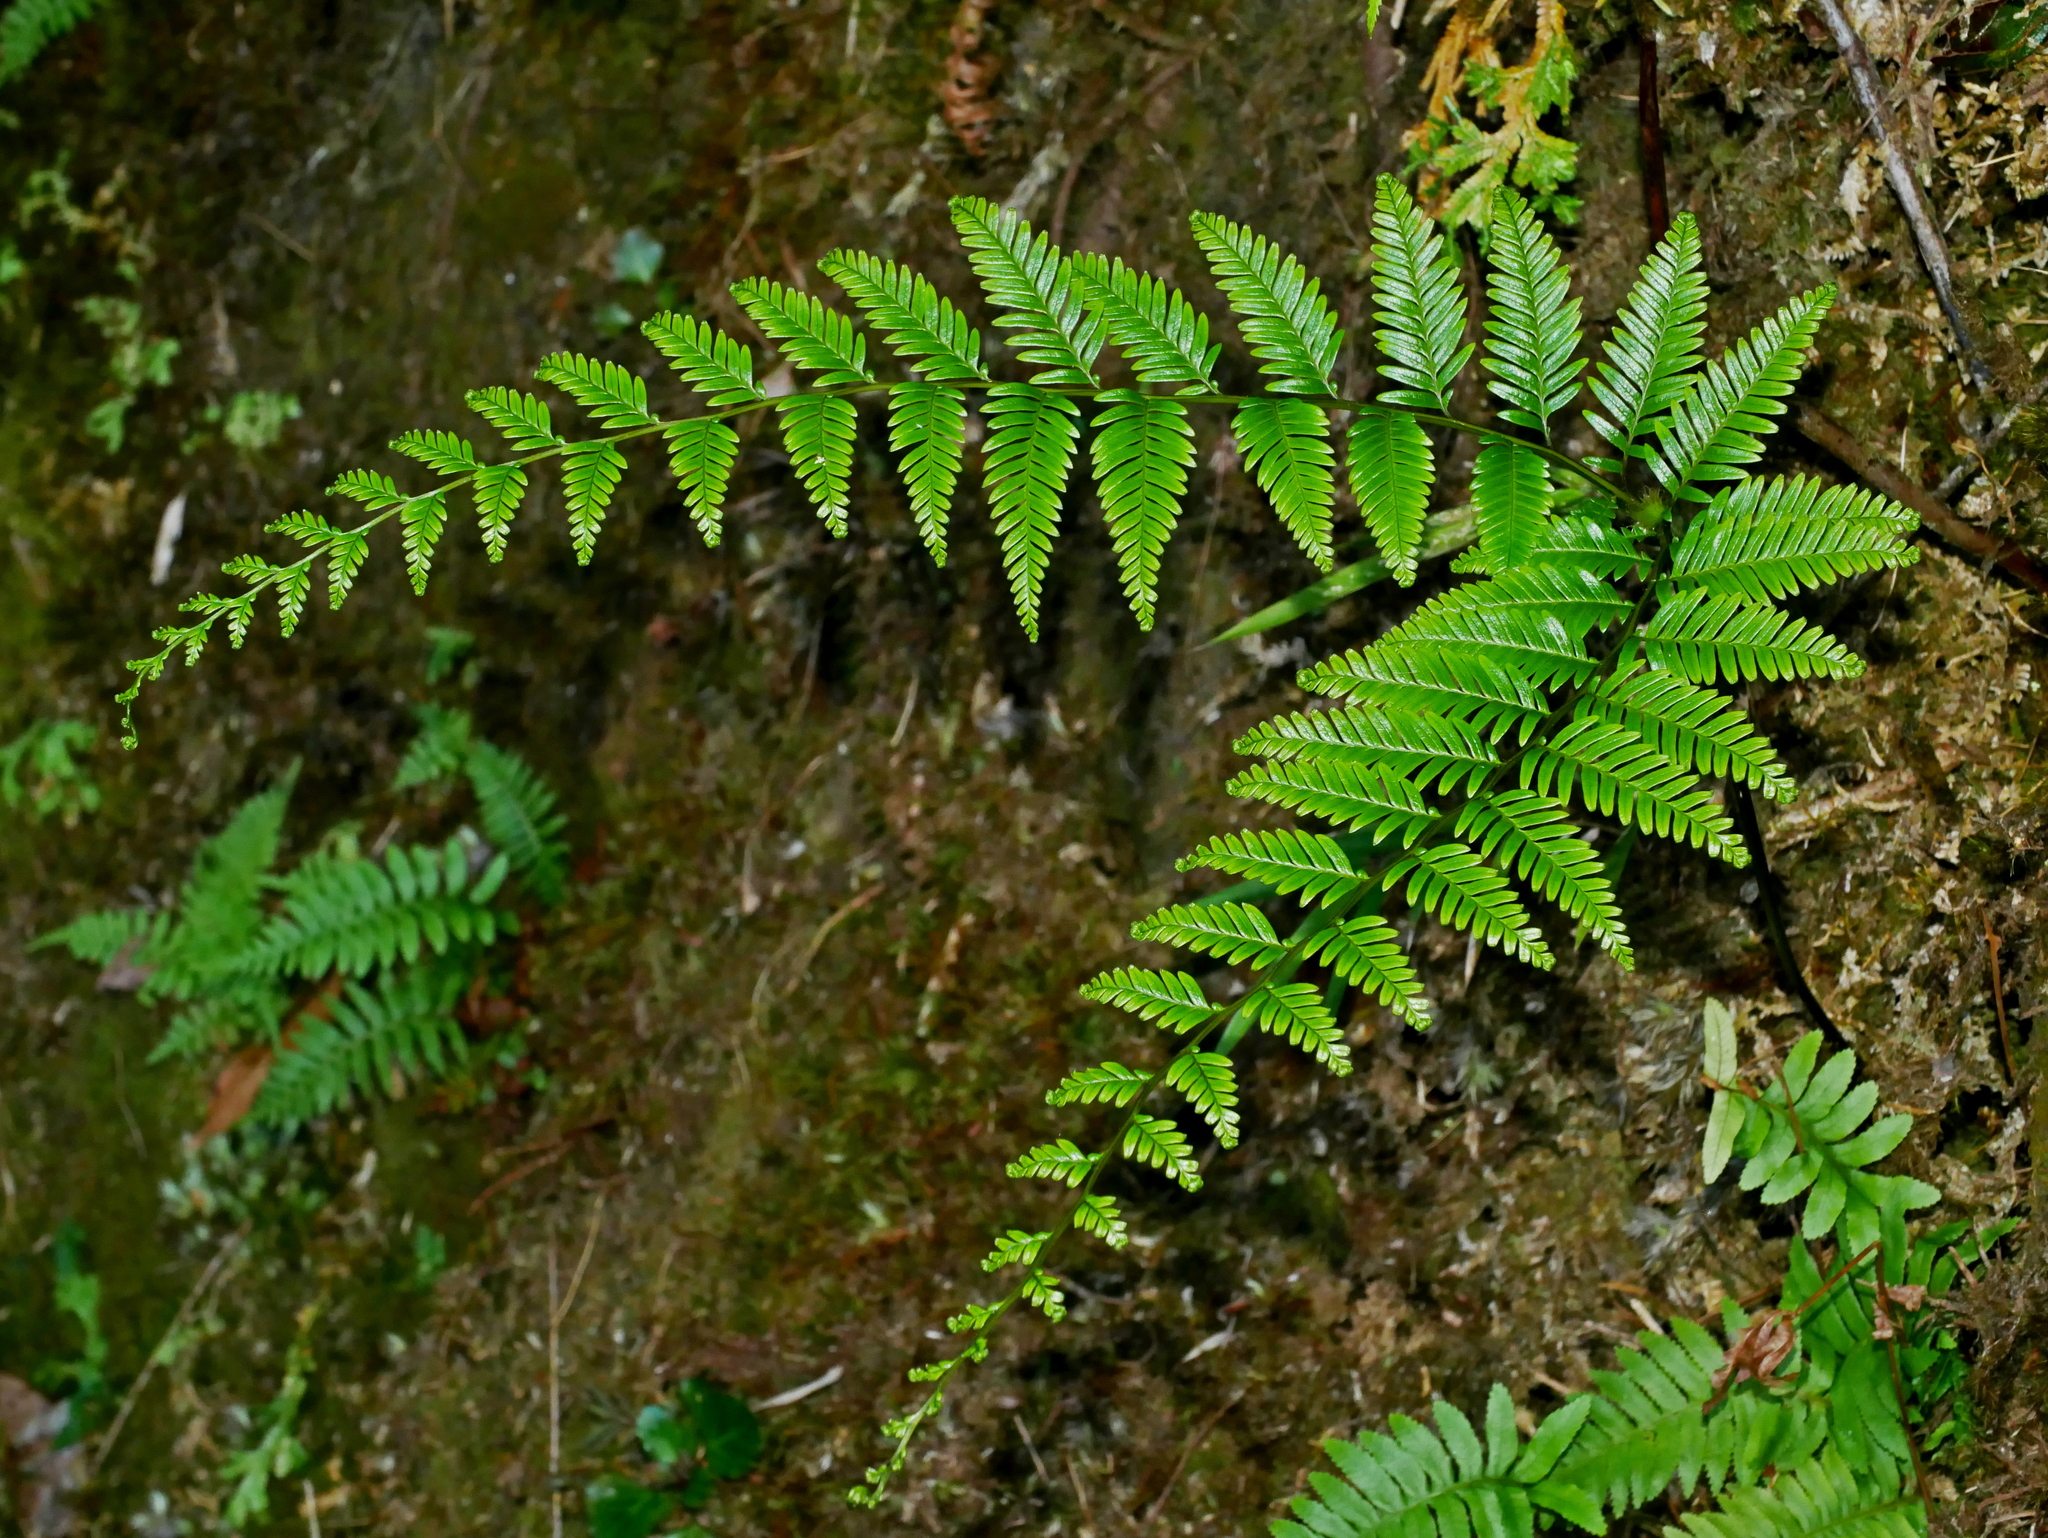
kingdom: Plantae
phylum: Tracheophyta
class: Polypodiopsida
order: Gleicheniales
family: Gleicheniaceae
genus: Diplopterygium
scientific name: Diplopterygium laevissimum
